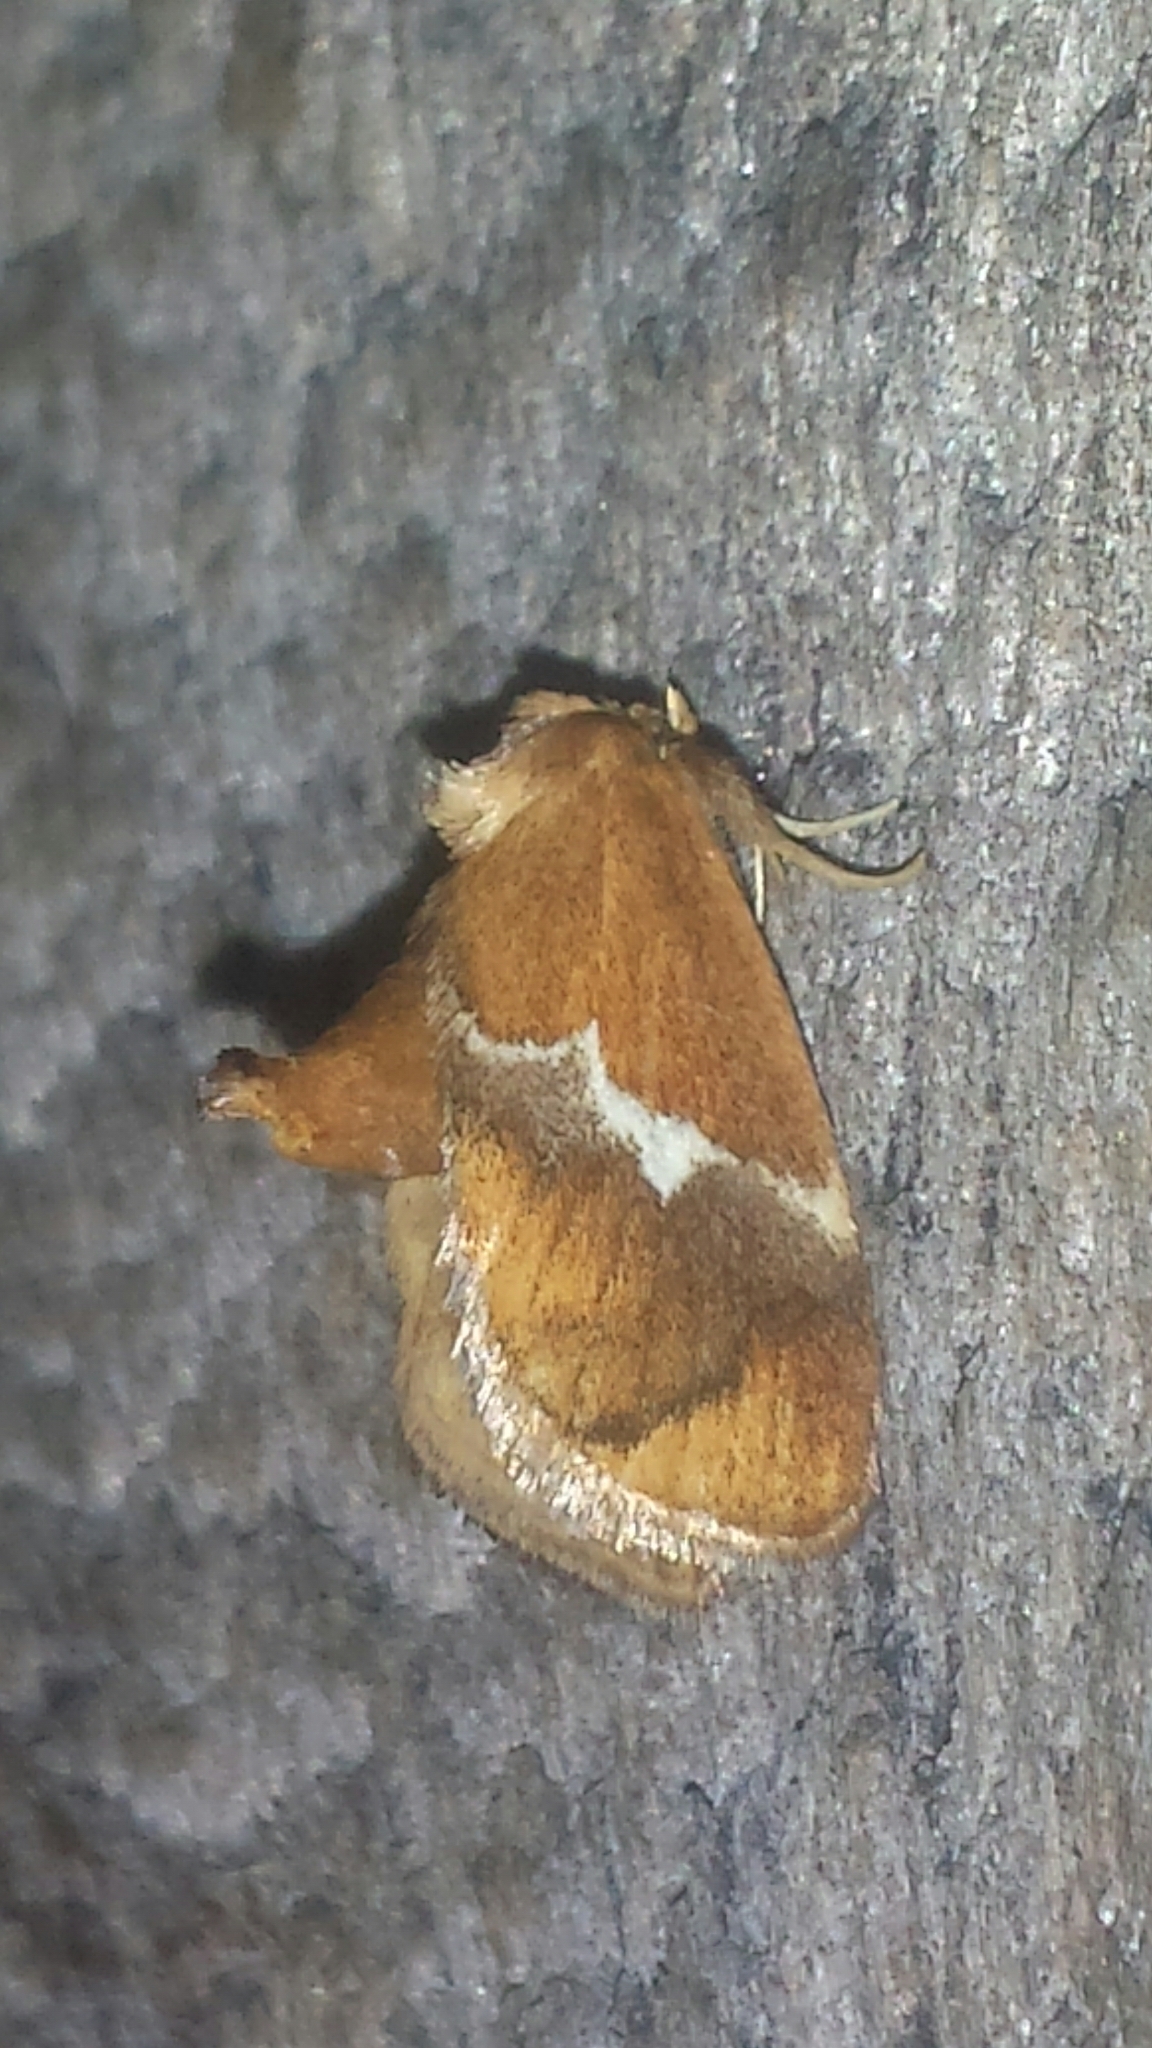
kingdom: Animalia
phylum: Arthropoda
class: Insecta
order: Lepidoptera
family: Limacodidae
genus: Lithacodes
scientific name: Lithacodes fasciola
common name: Yellow-shouldered slug moth
